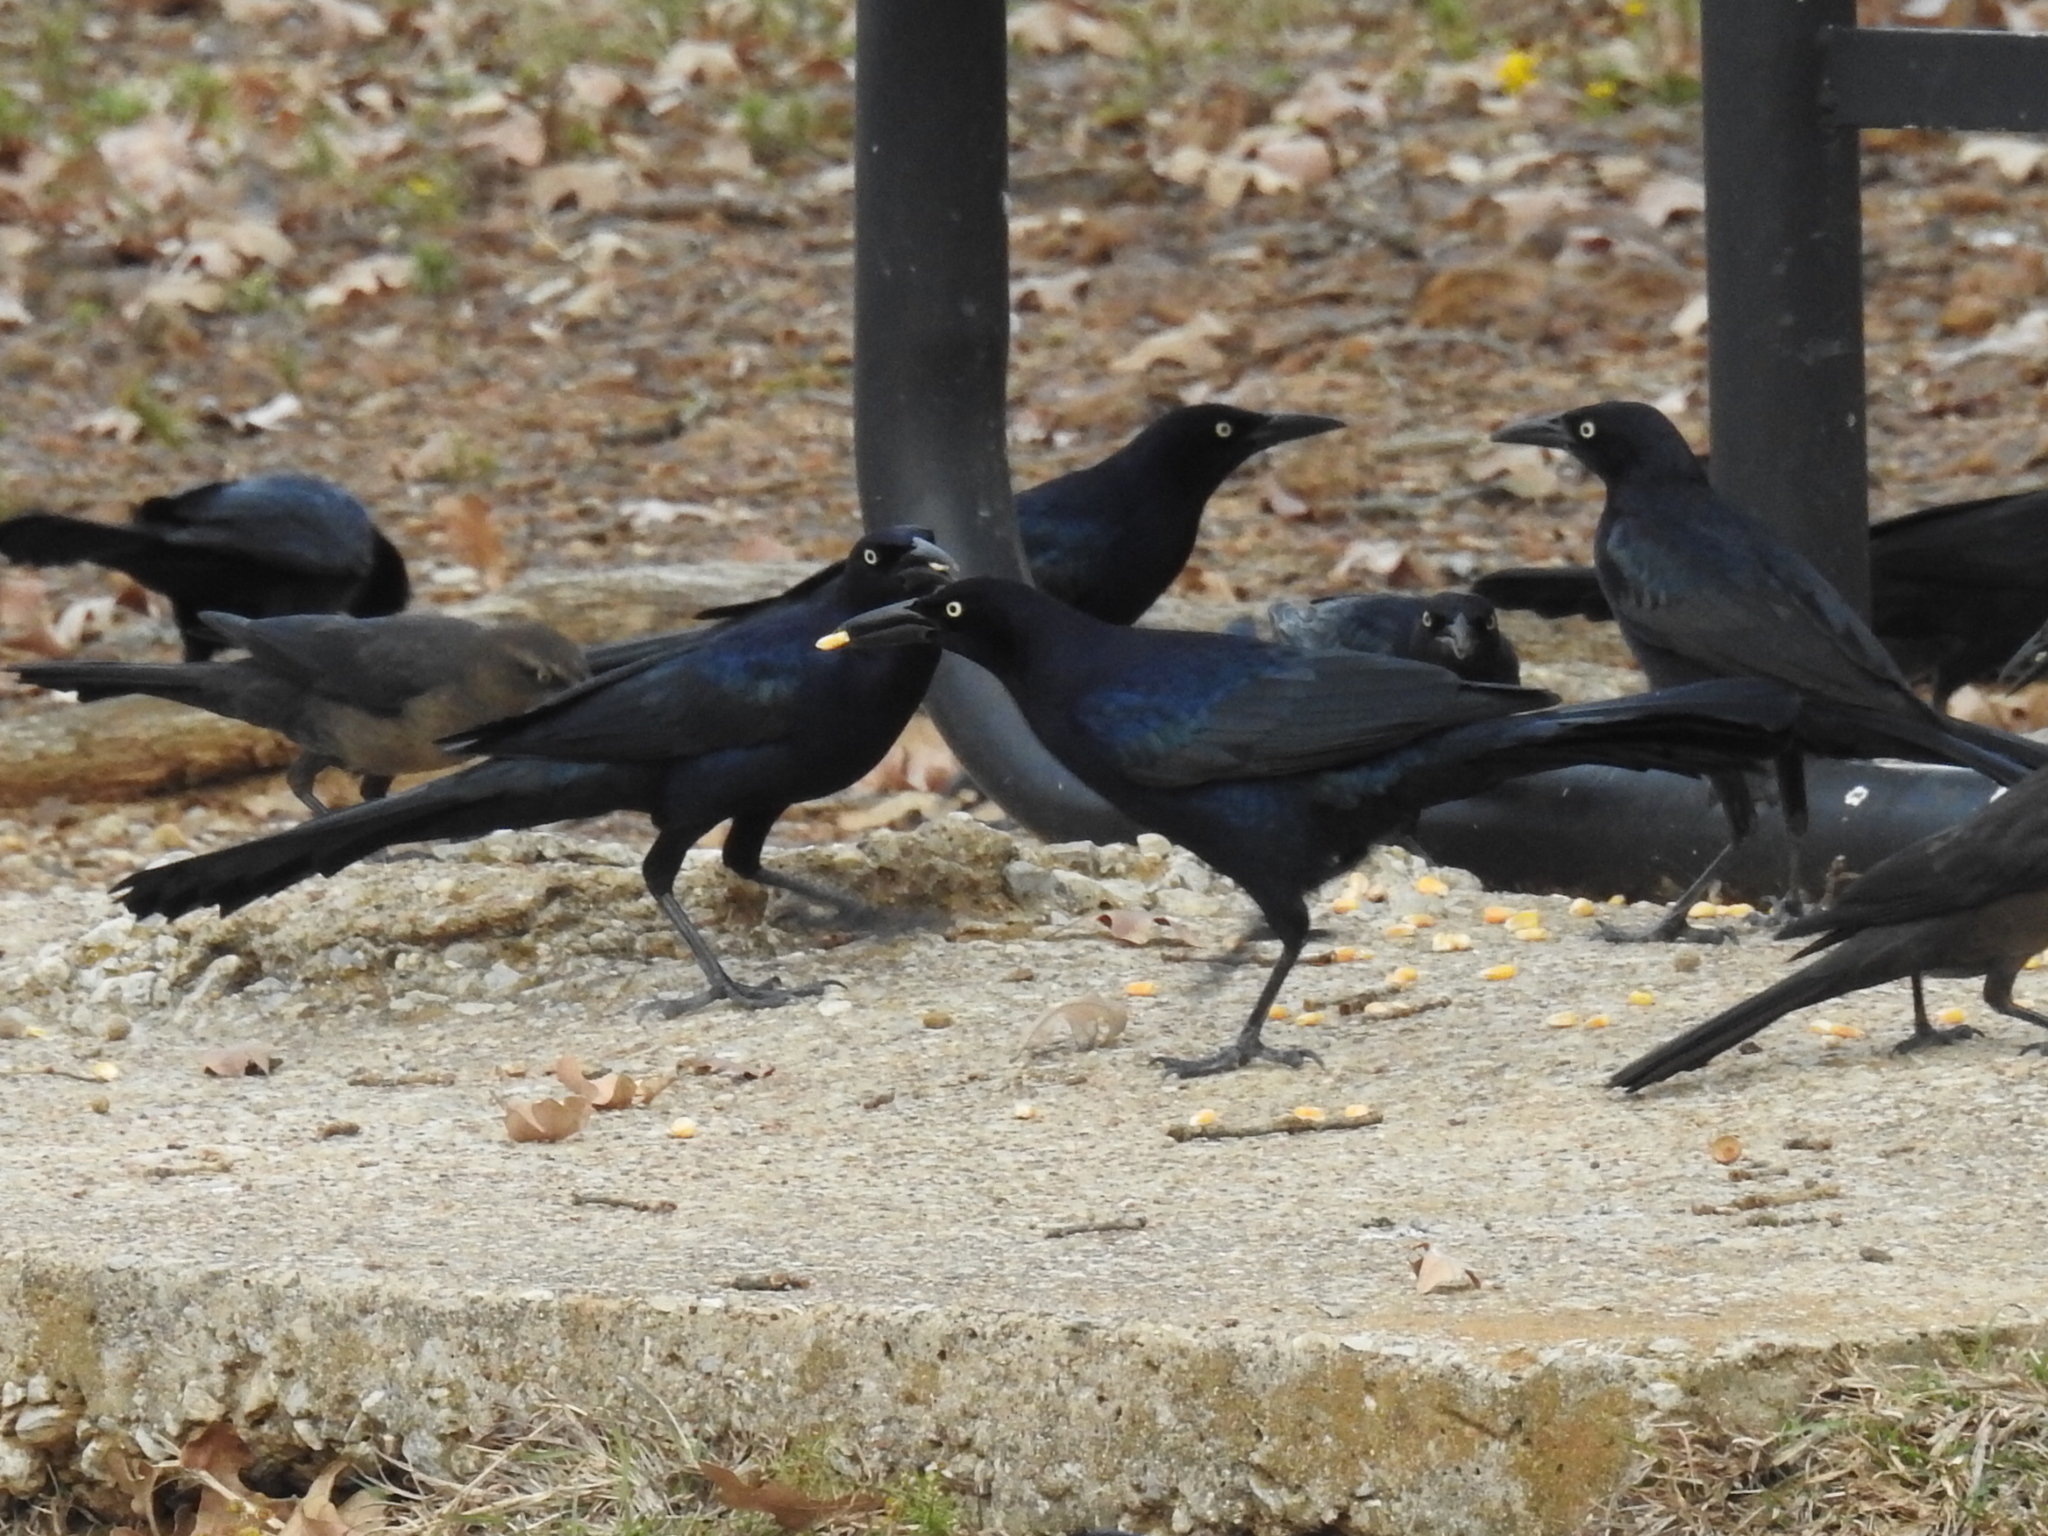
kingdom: Animalia
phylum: Chordata
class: Aves
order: Passeriformes
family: Icteridae
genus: Quiscalus
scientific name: Quiscalus mexicanus
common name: Great-tailed grackle
